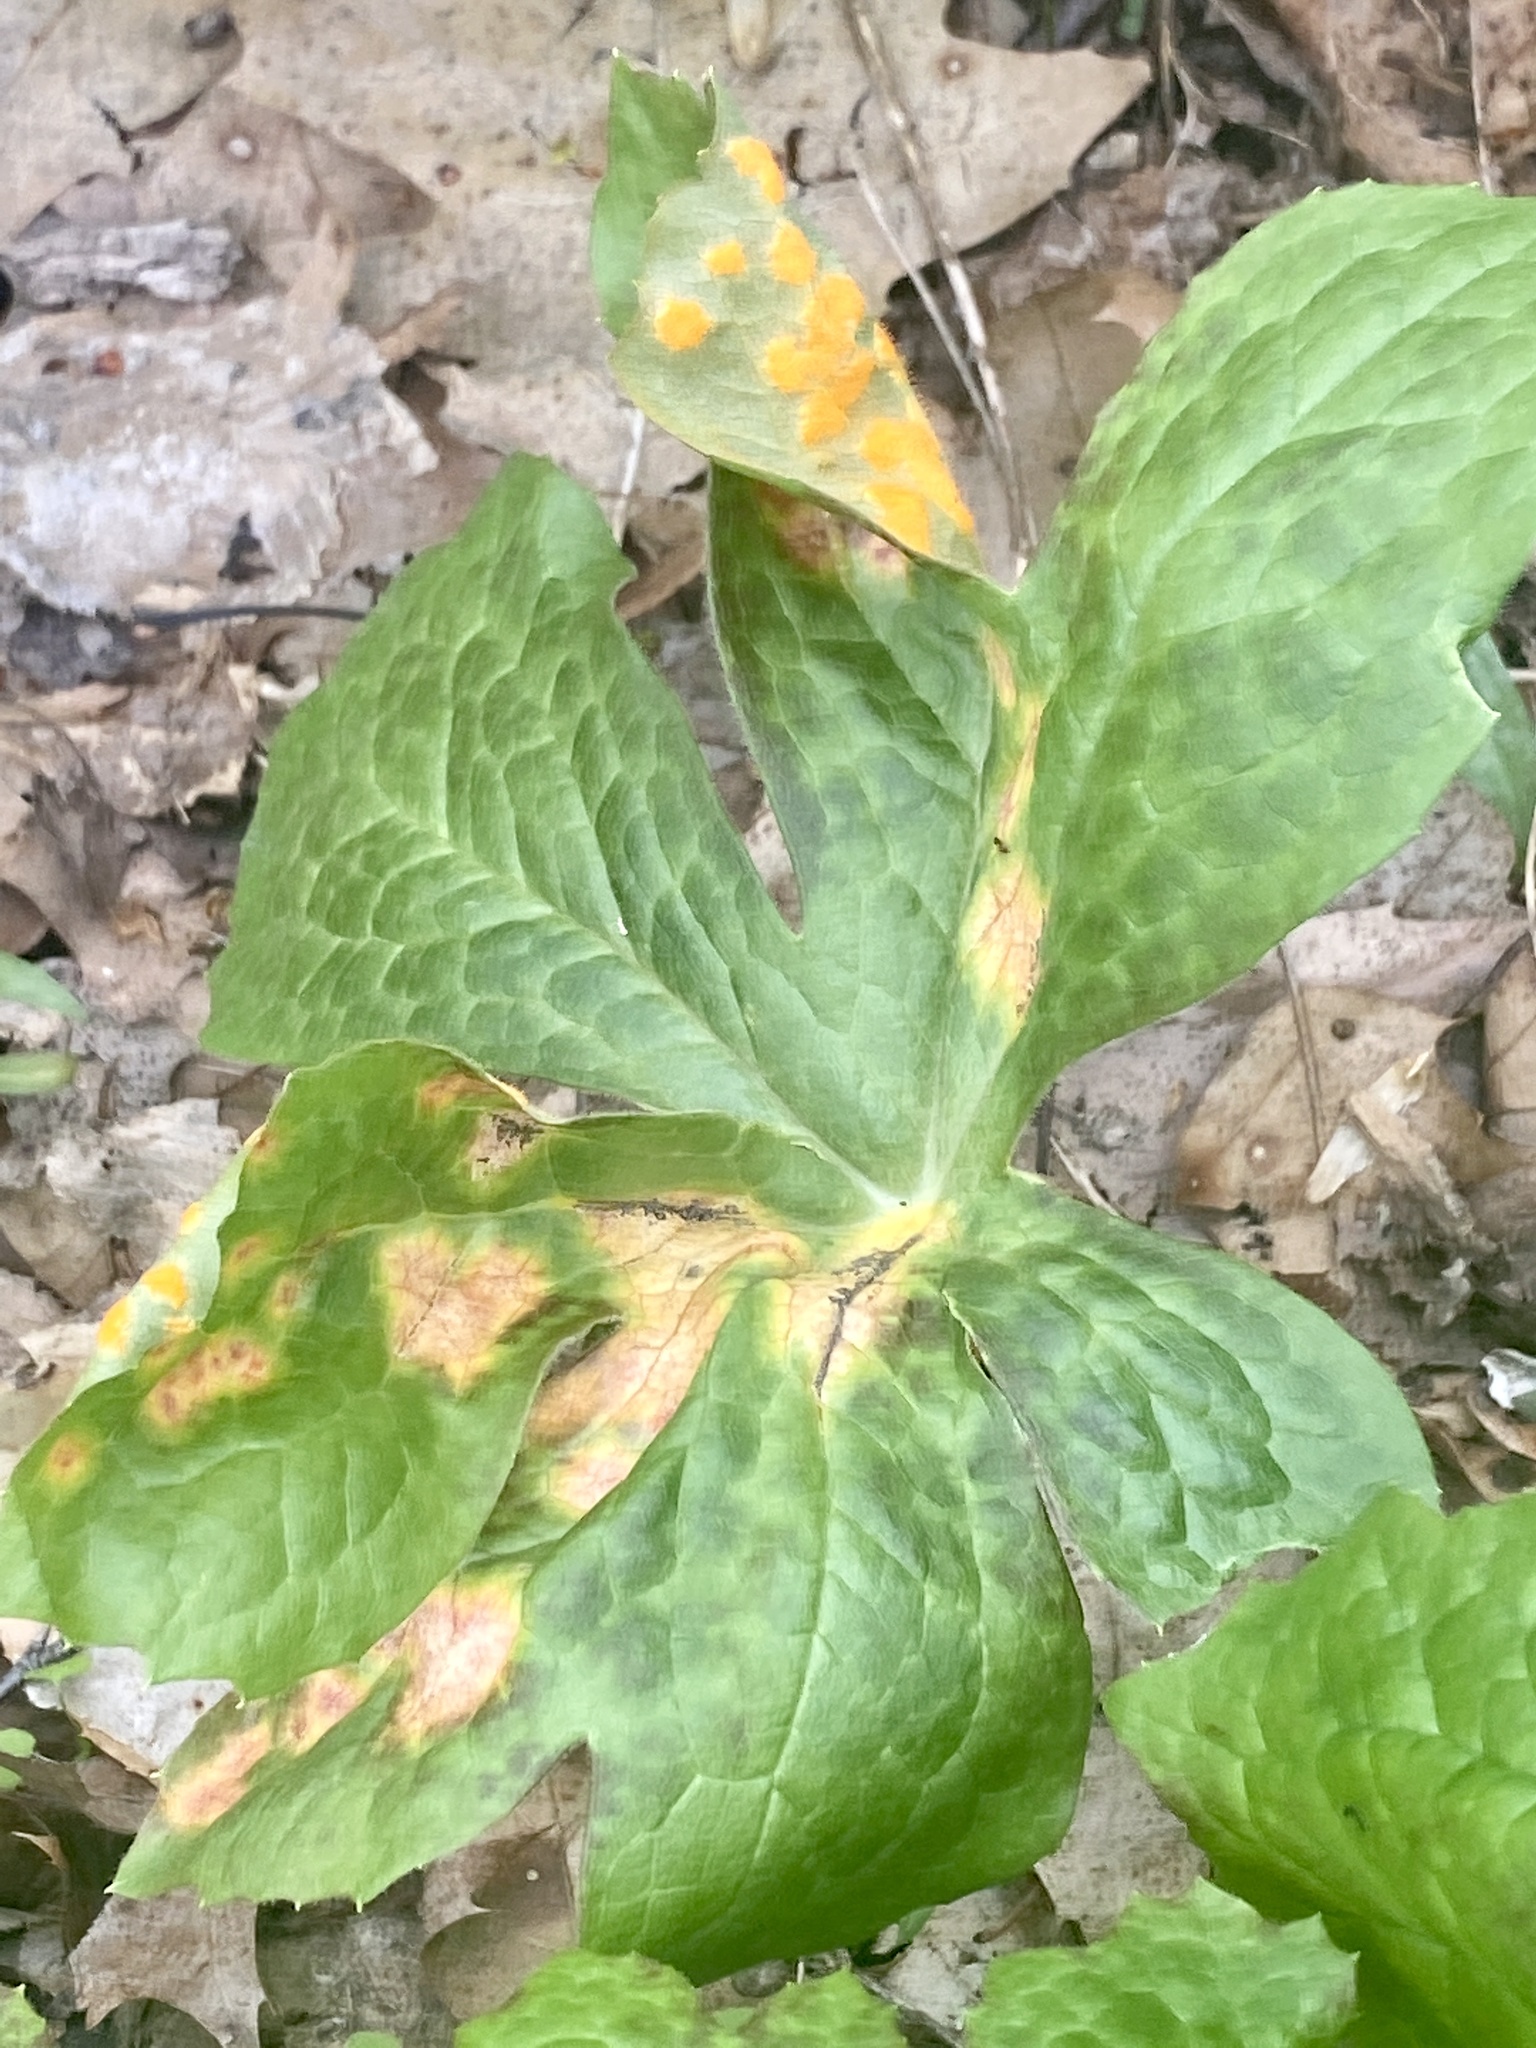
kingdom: Fungi
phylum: Basidiomycota
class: Pucciniomycetes
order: Pucciniales
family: Pucciniaceae
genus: Puccinia
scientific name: Puccinia podophylli
